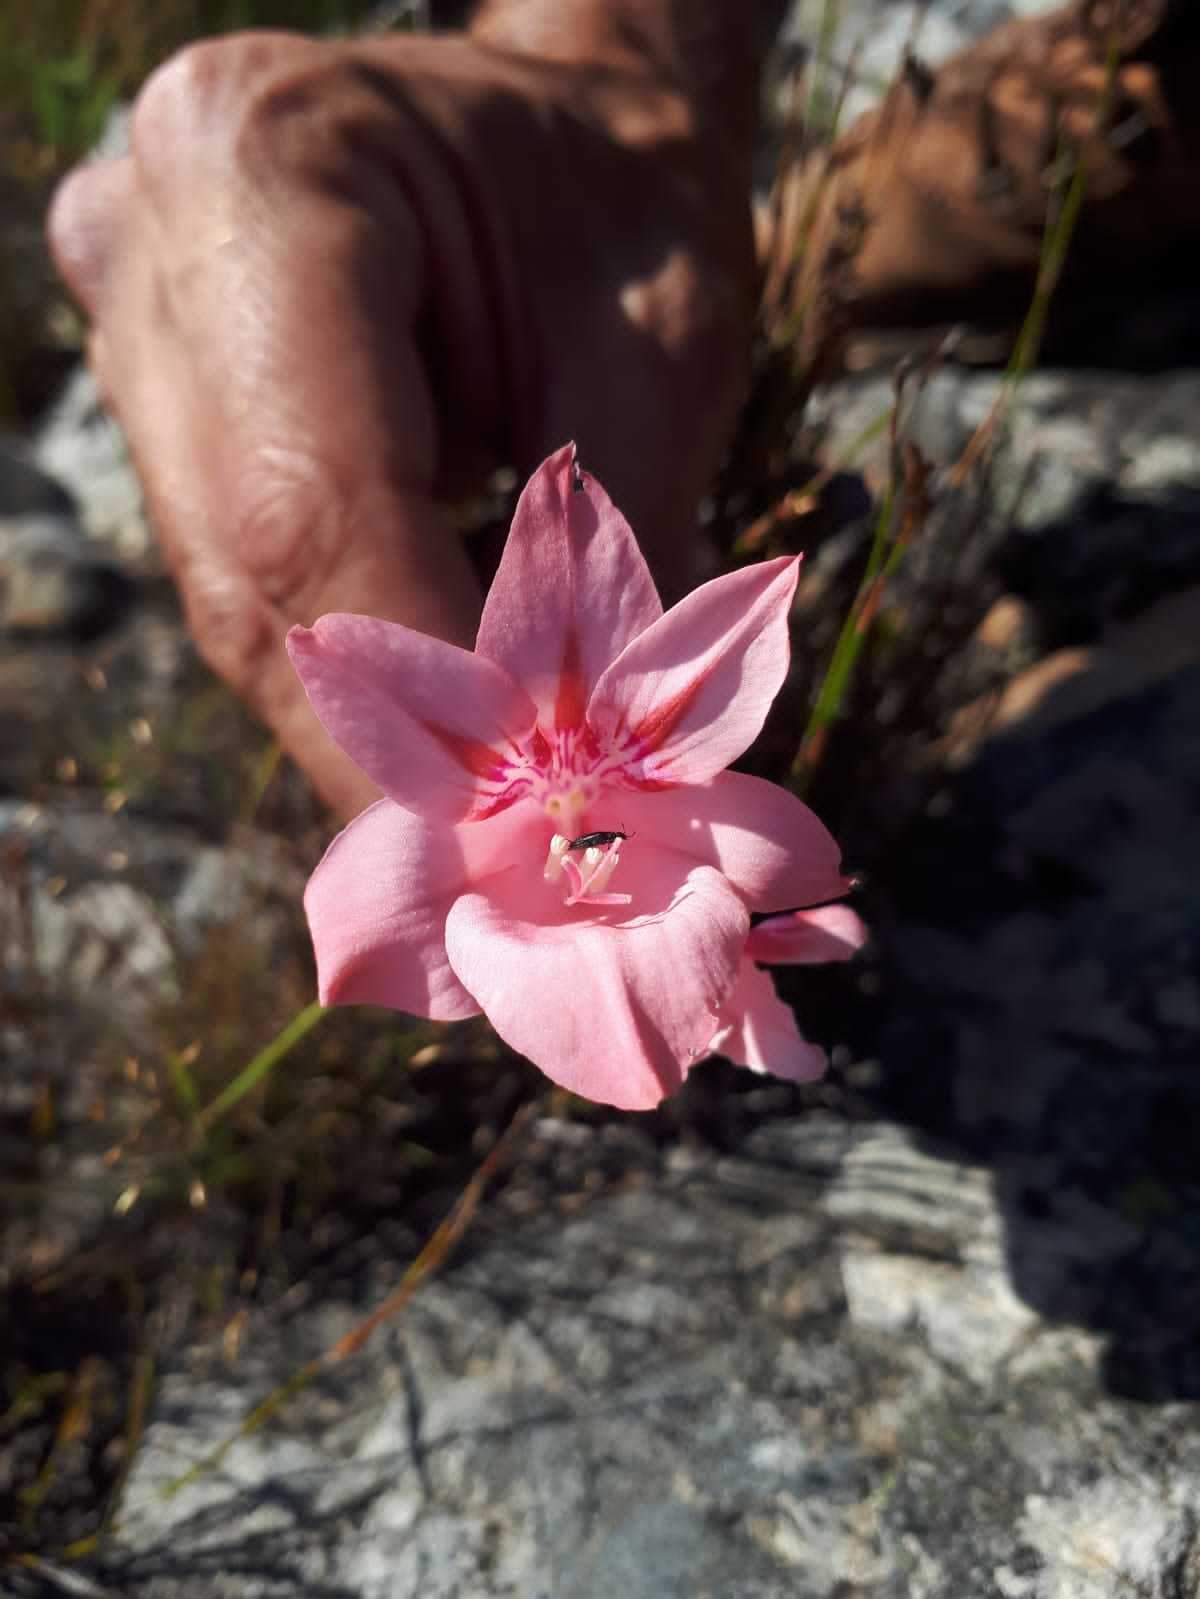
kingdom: Plantae
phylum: Tracheophyta
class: Liliopsida
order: Asparagales
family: Iridaceae
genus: Gladiolus
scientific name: Gladiolus rhodanthus
